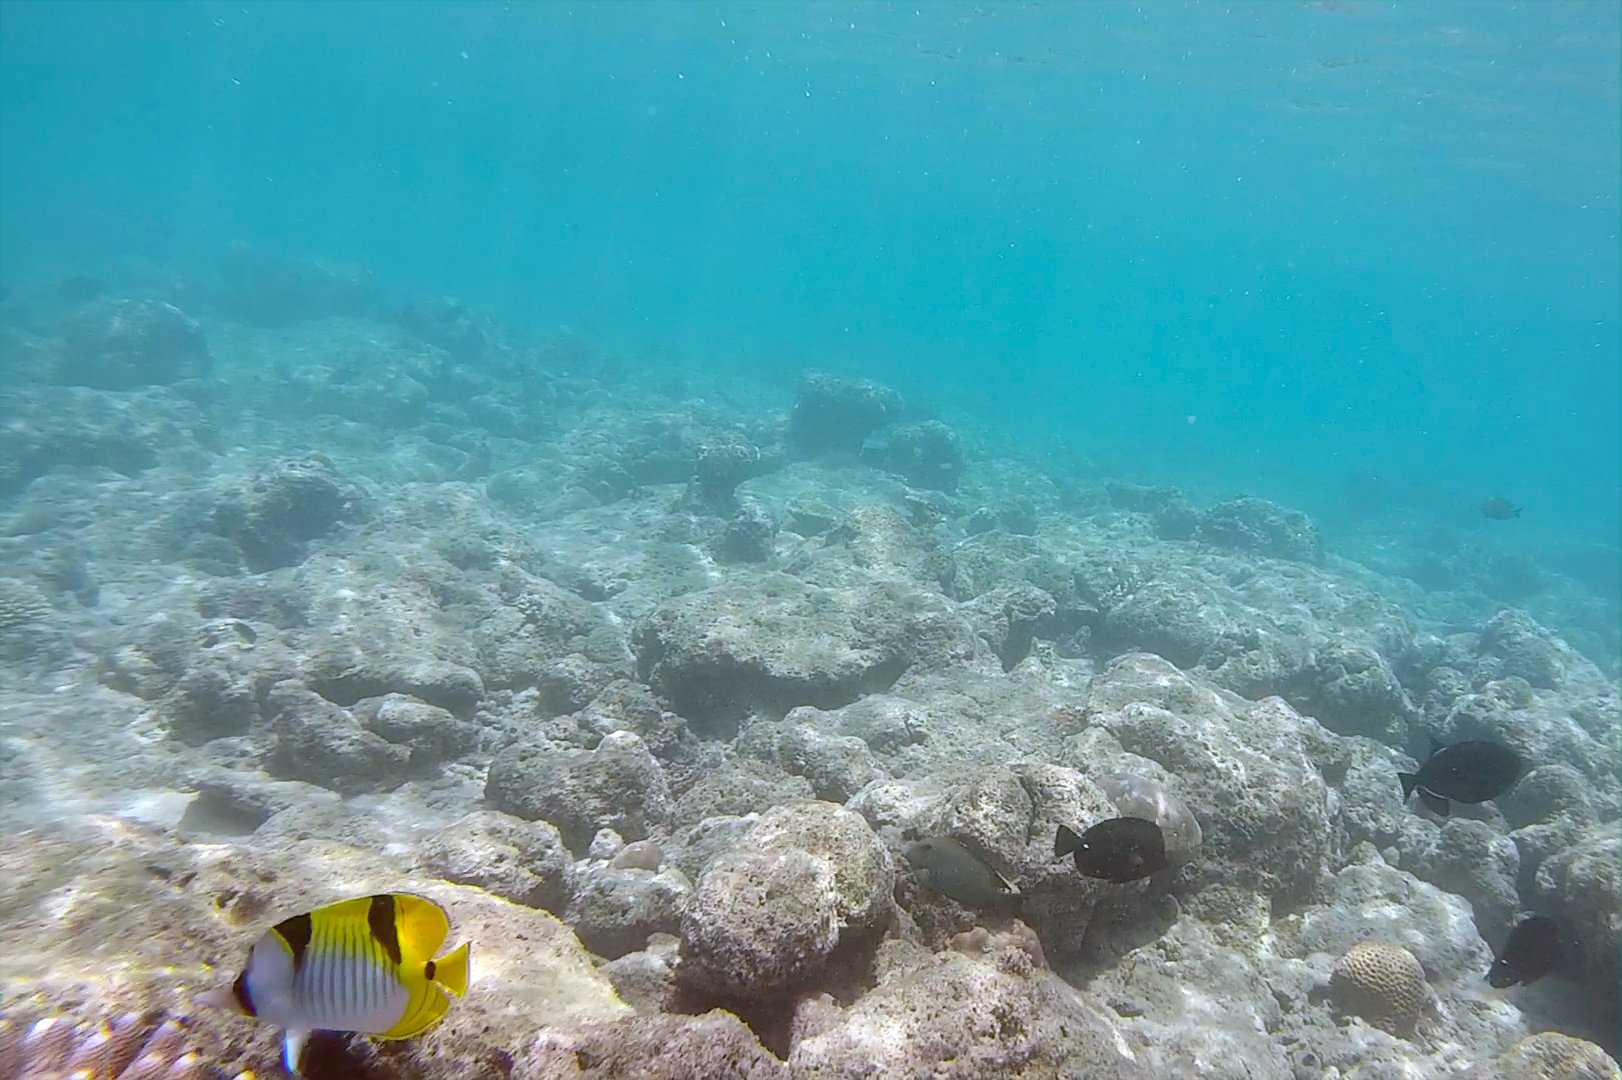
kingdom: Animalia
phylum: Chordata
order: Perciformes
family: Chaetodontidae
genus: Chaetodon
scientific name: Chaetodon falcula
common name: Blackwedged butterflyfish
